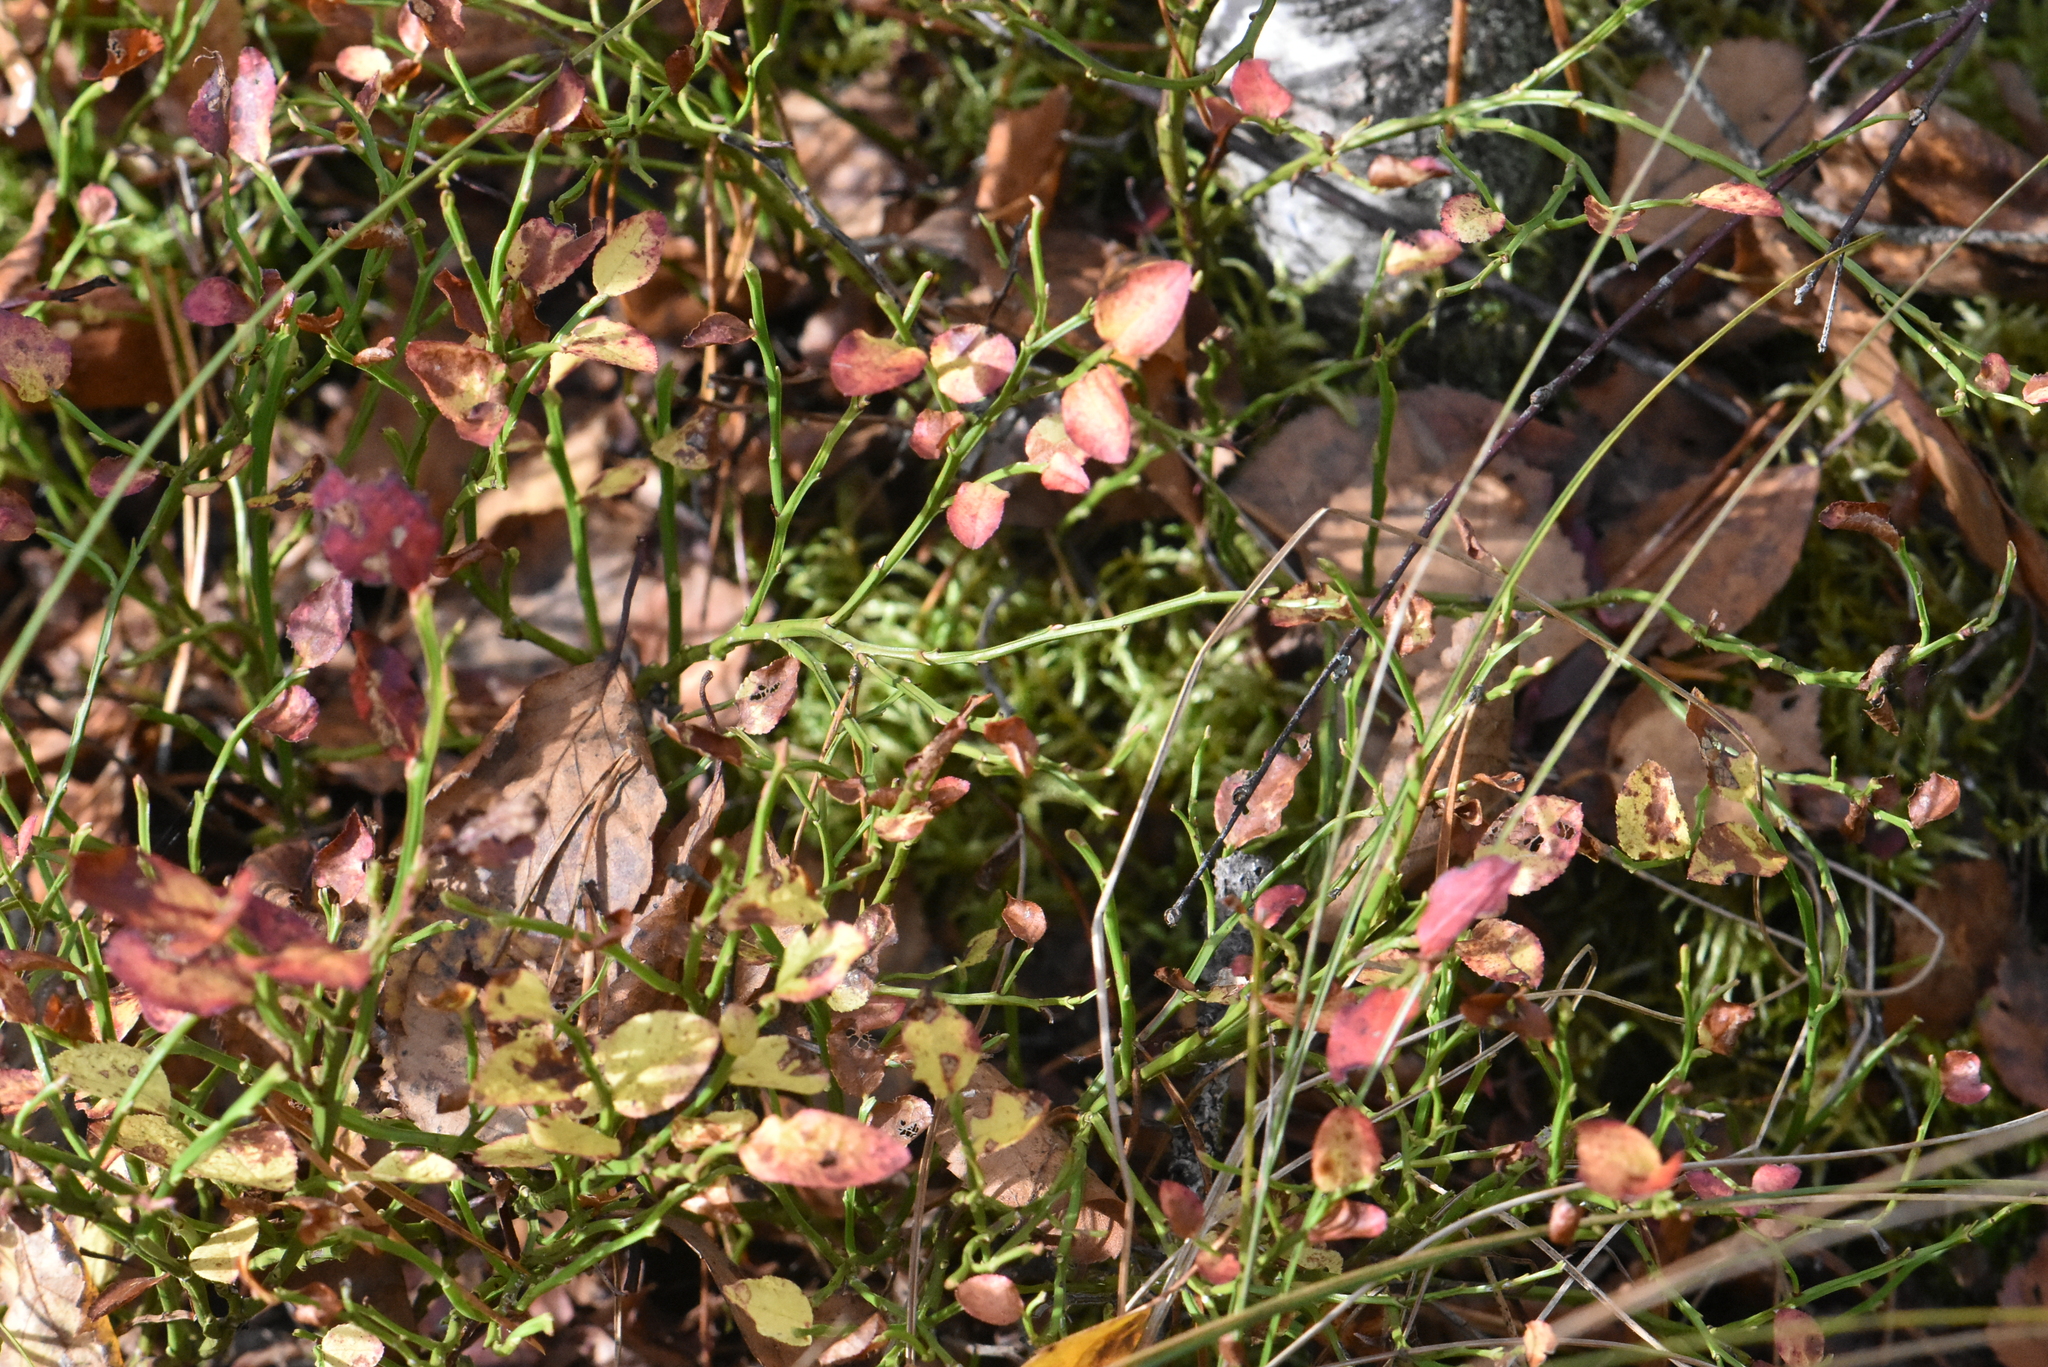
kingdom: Plantae
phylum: Tracheophyta
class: Magnoliopsida
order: Ericales
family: Ericaceae
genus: Vaccinium
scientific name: Vaccinium myrtillus
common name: Bilberry
